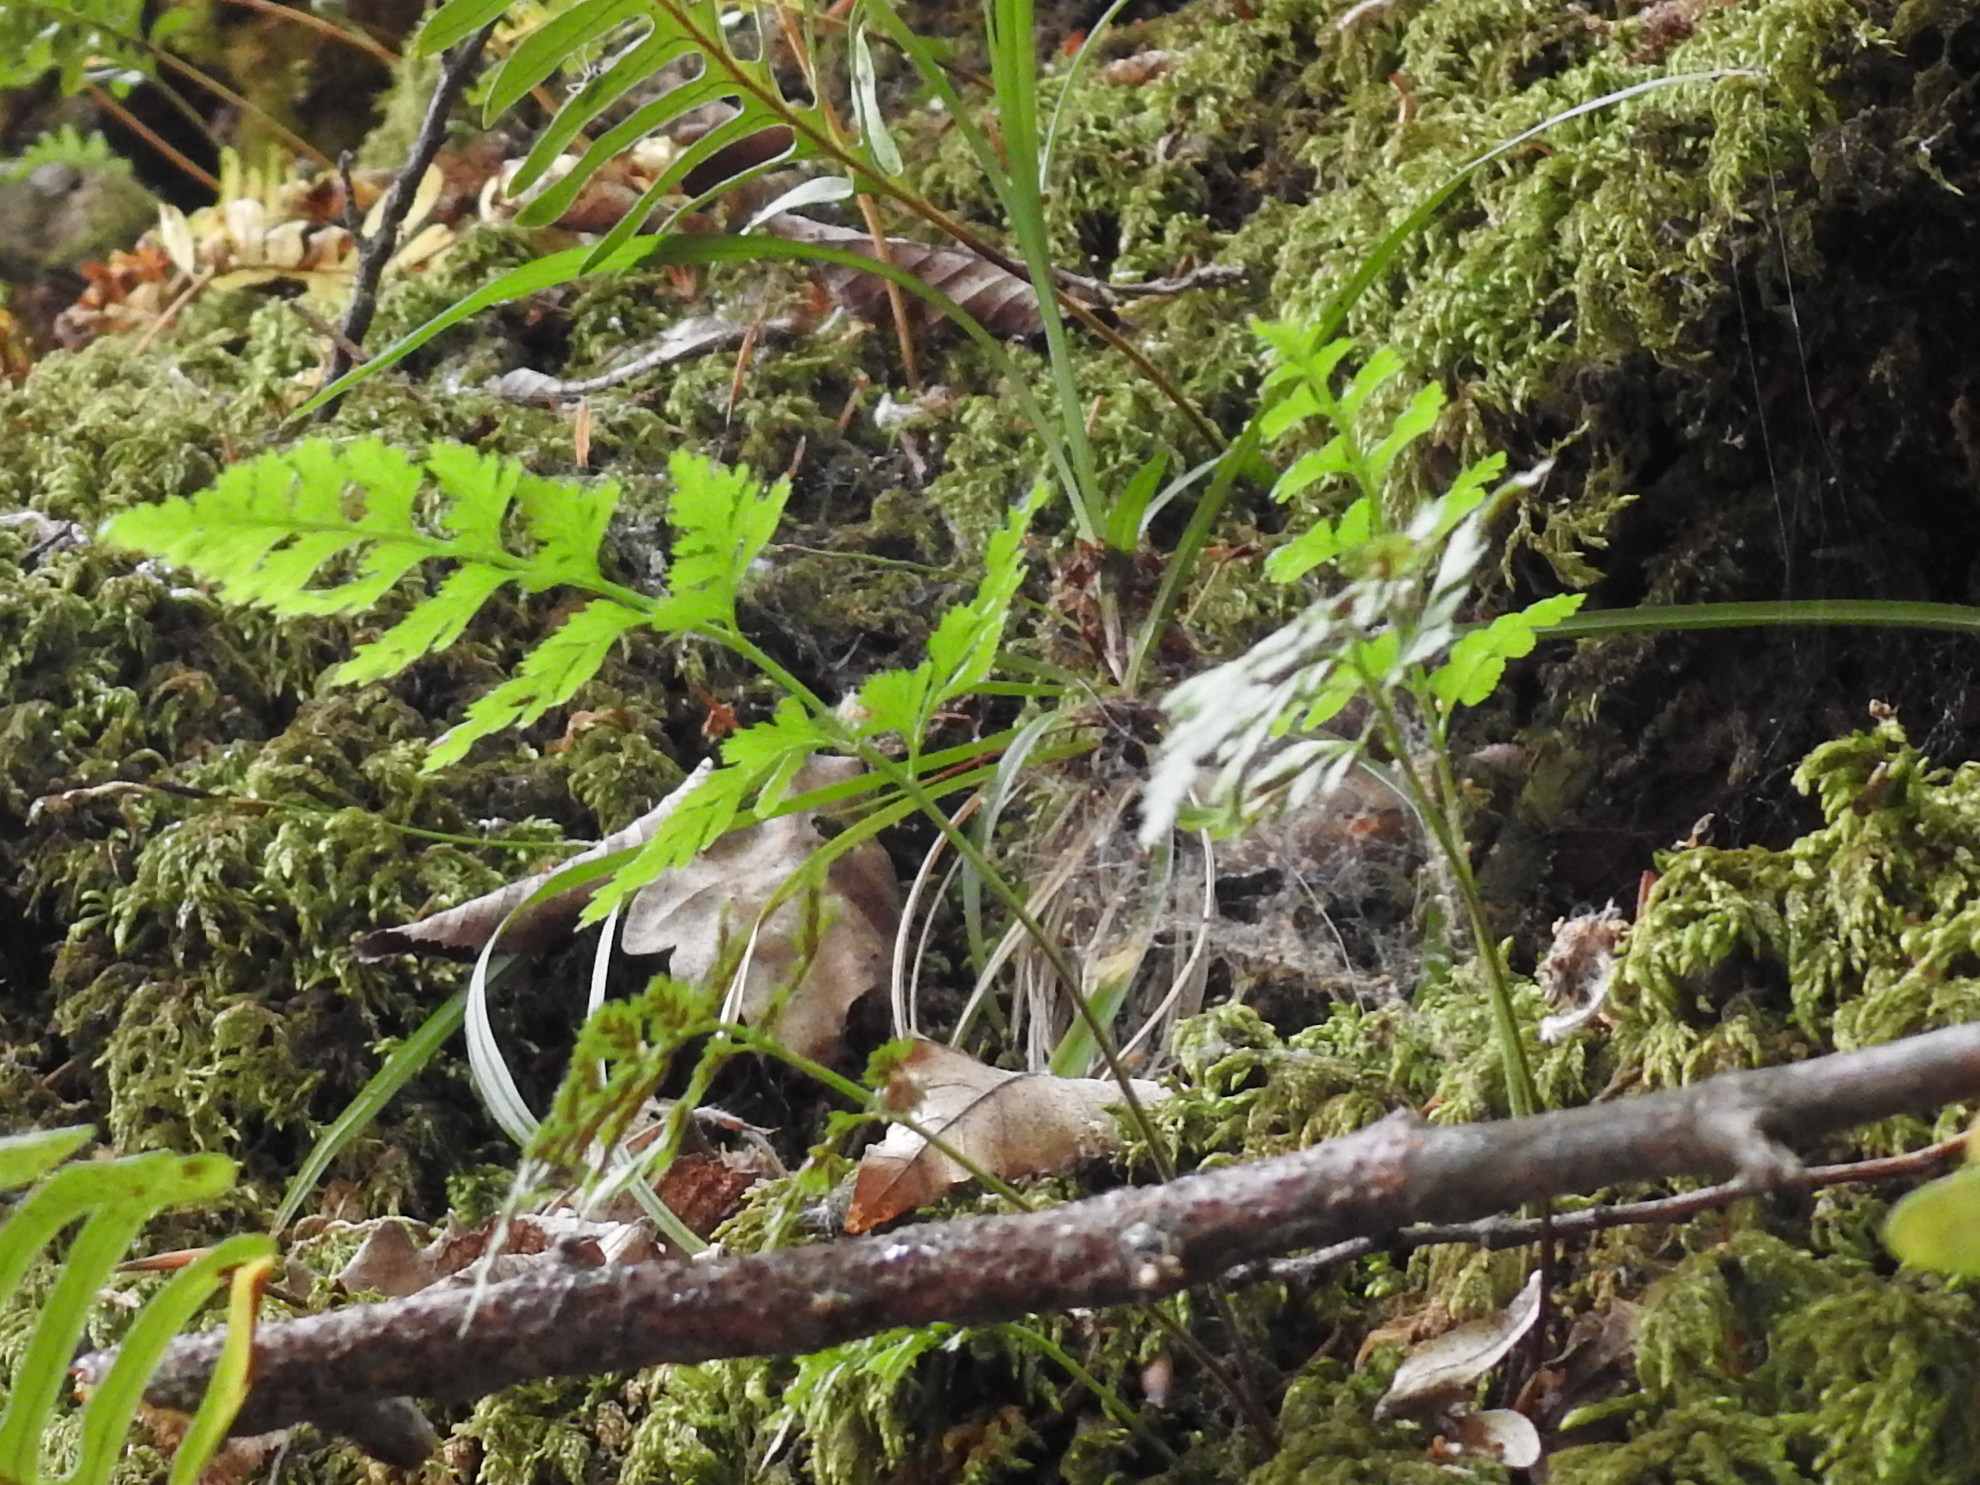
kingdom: Plantae
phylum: Tracheophyta
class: Polypodiopsida
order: Polypodiales
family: Aspleniaceae
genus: Asplenium
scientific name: Asplenium adiantum-nigrum
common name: Black spleenwort
